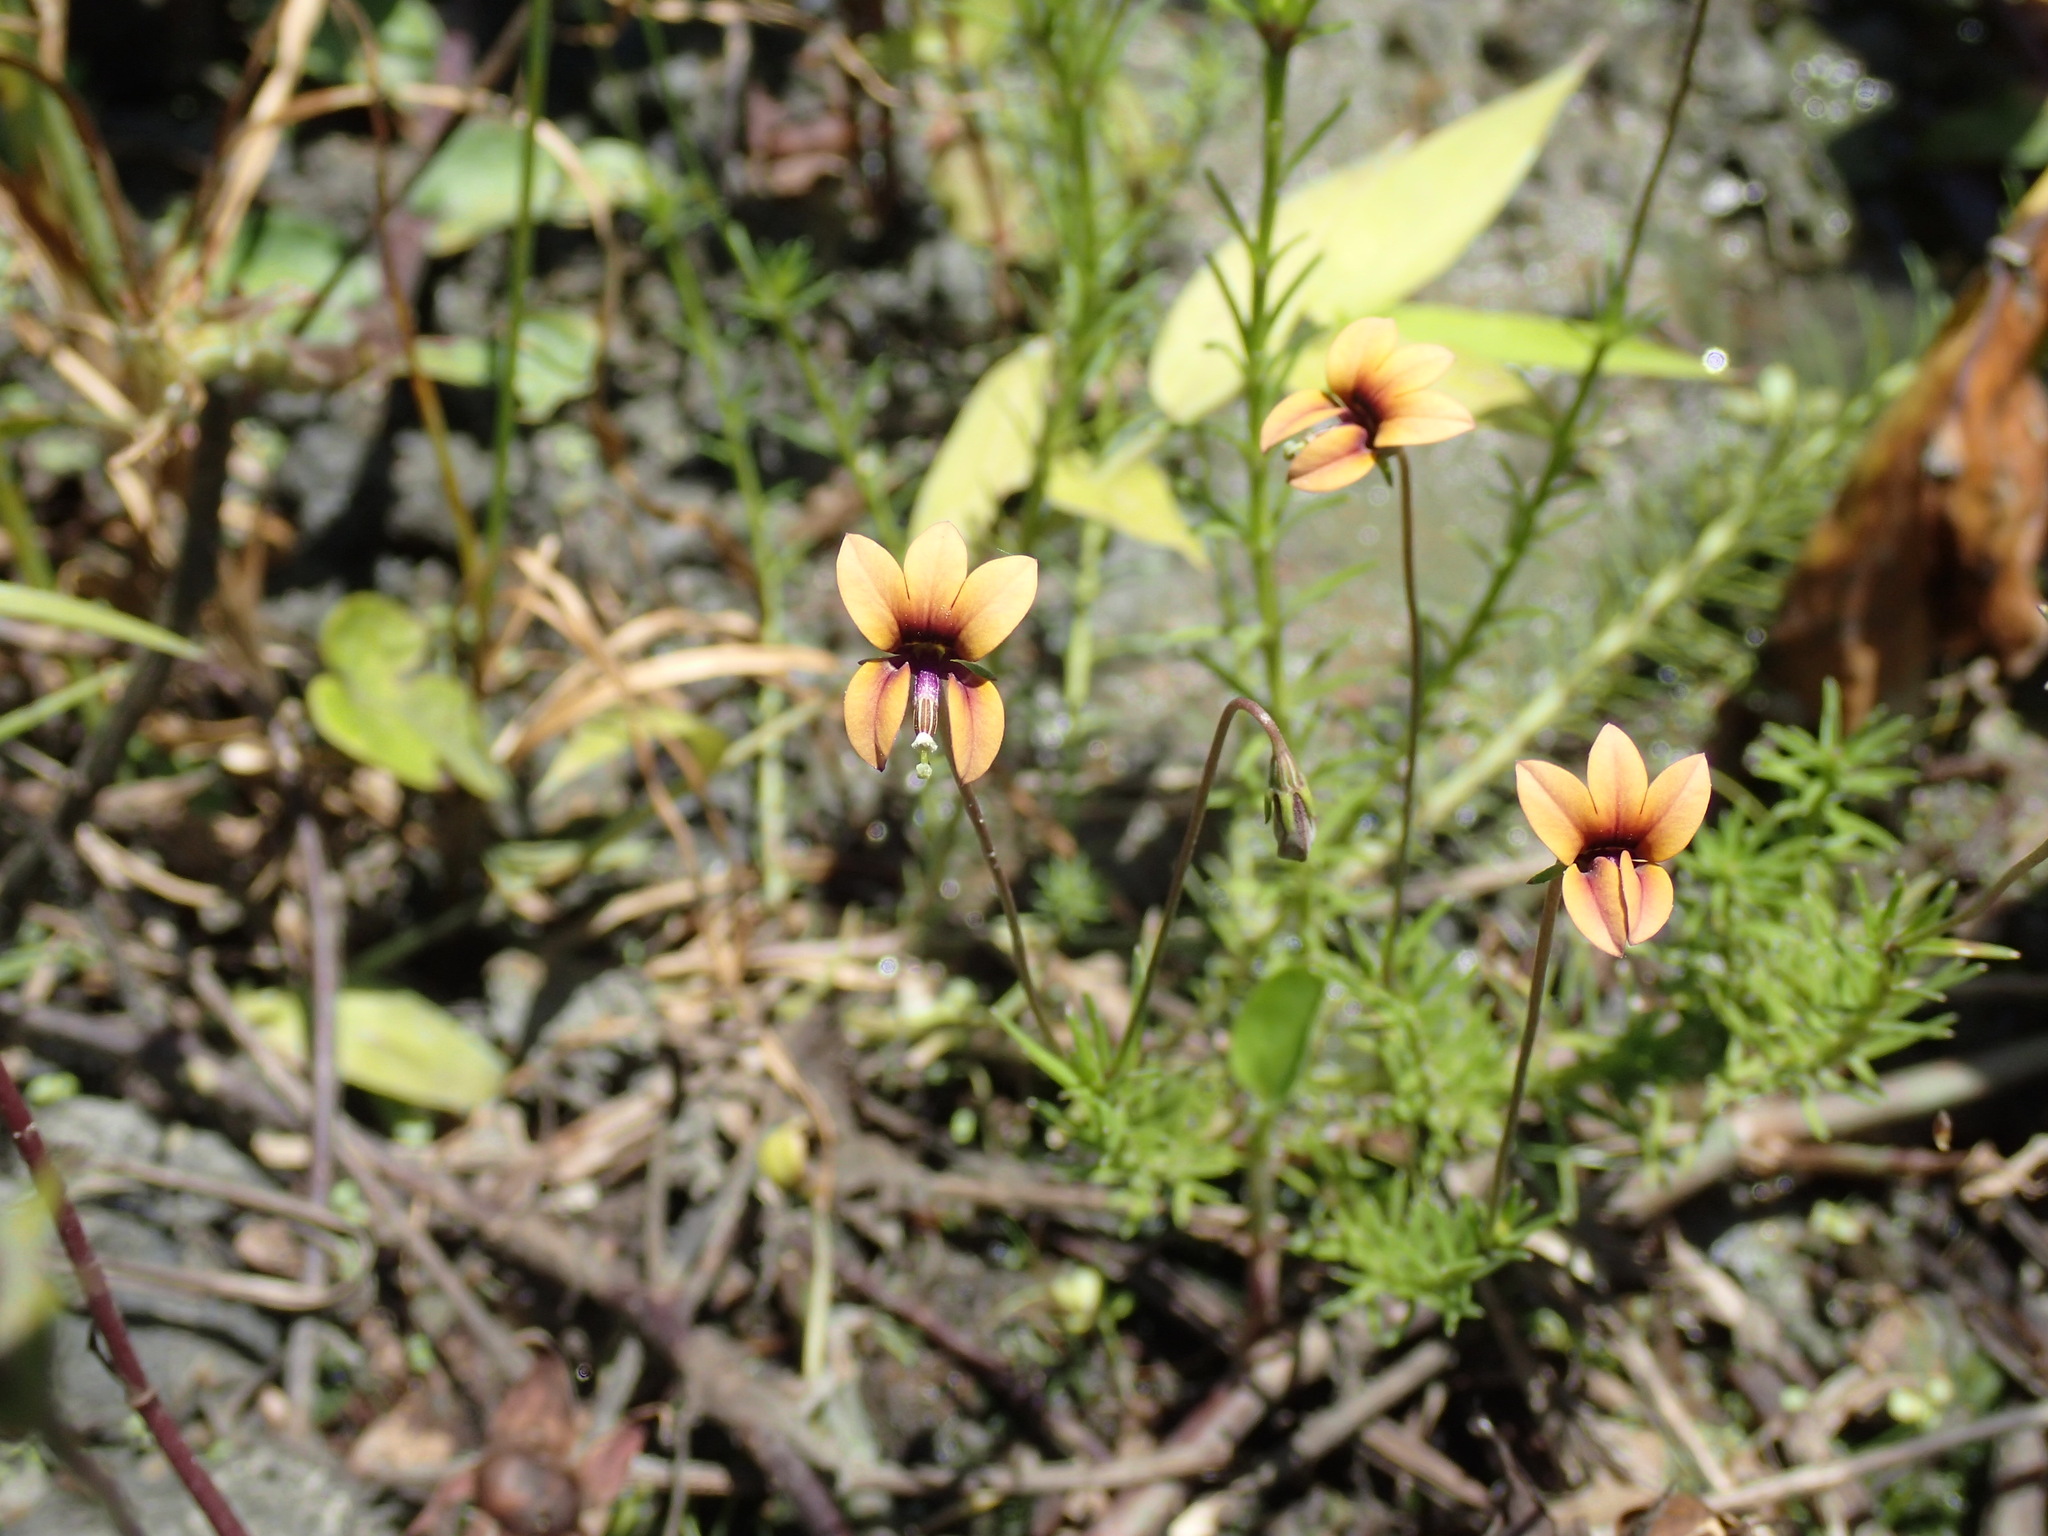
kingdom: Plantae
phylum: Tracheophyta
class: Magnoliopsida
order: Asterales
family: Campanulaceae
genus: Monopsis
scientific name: Monopsis unidentata
